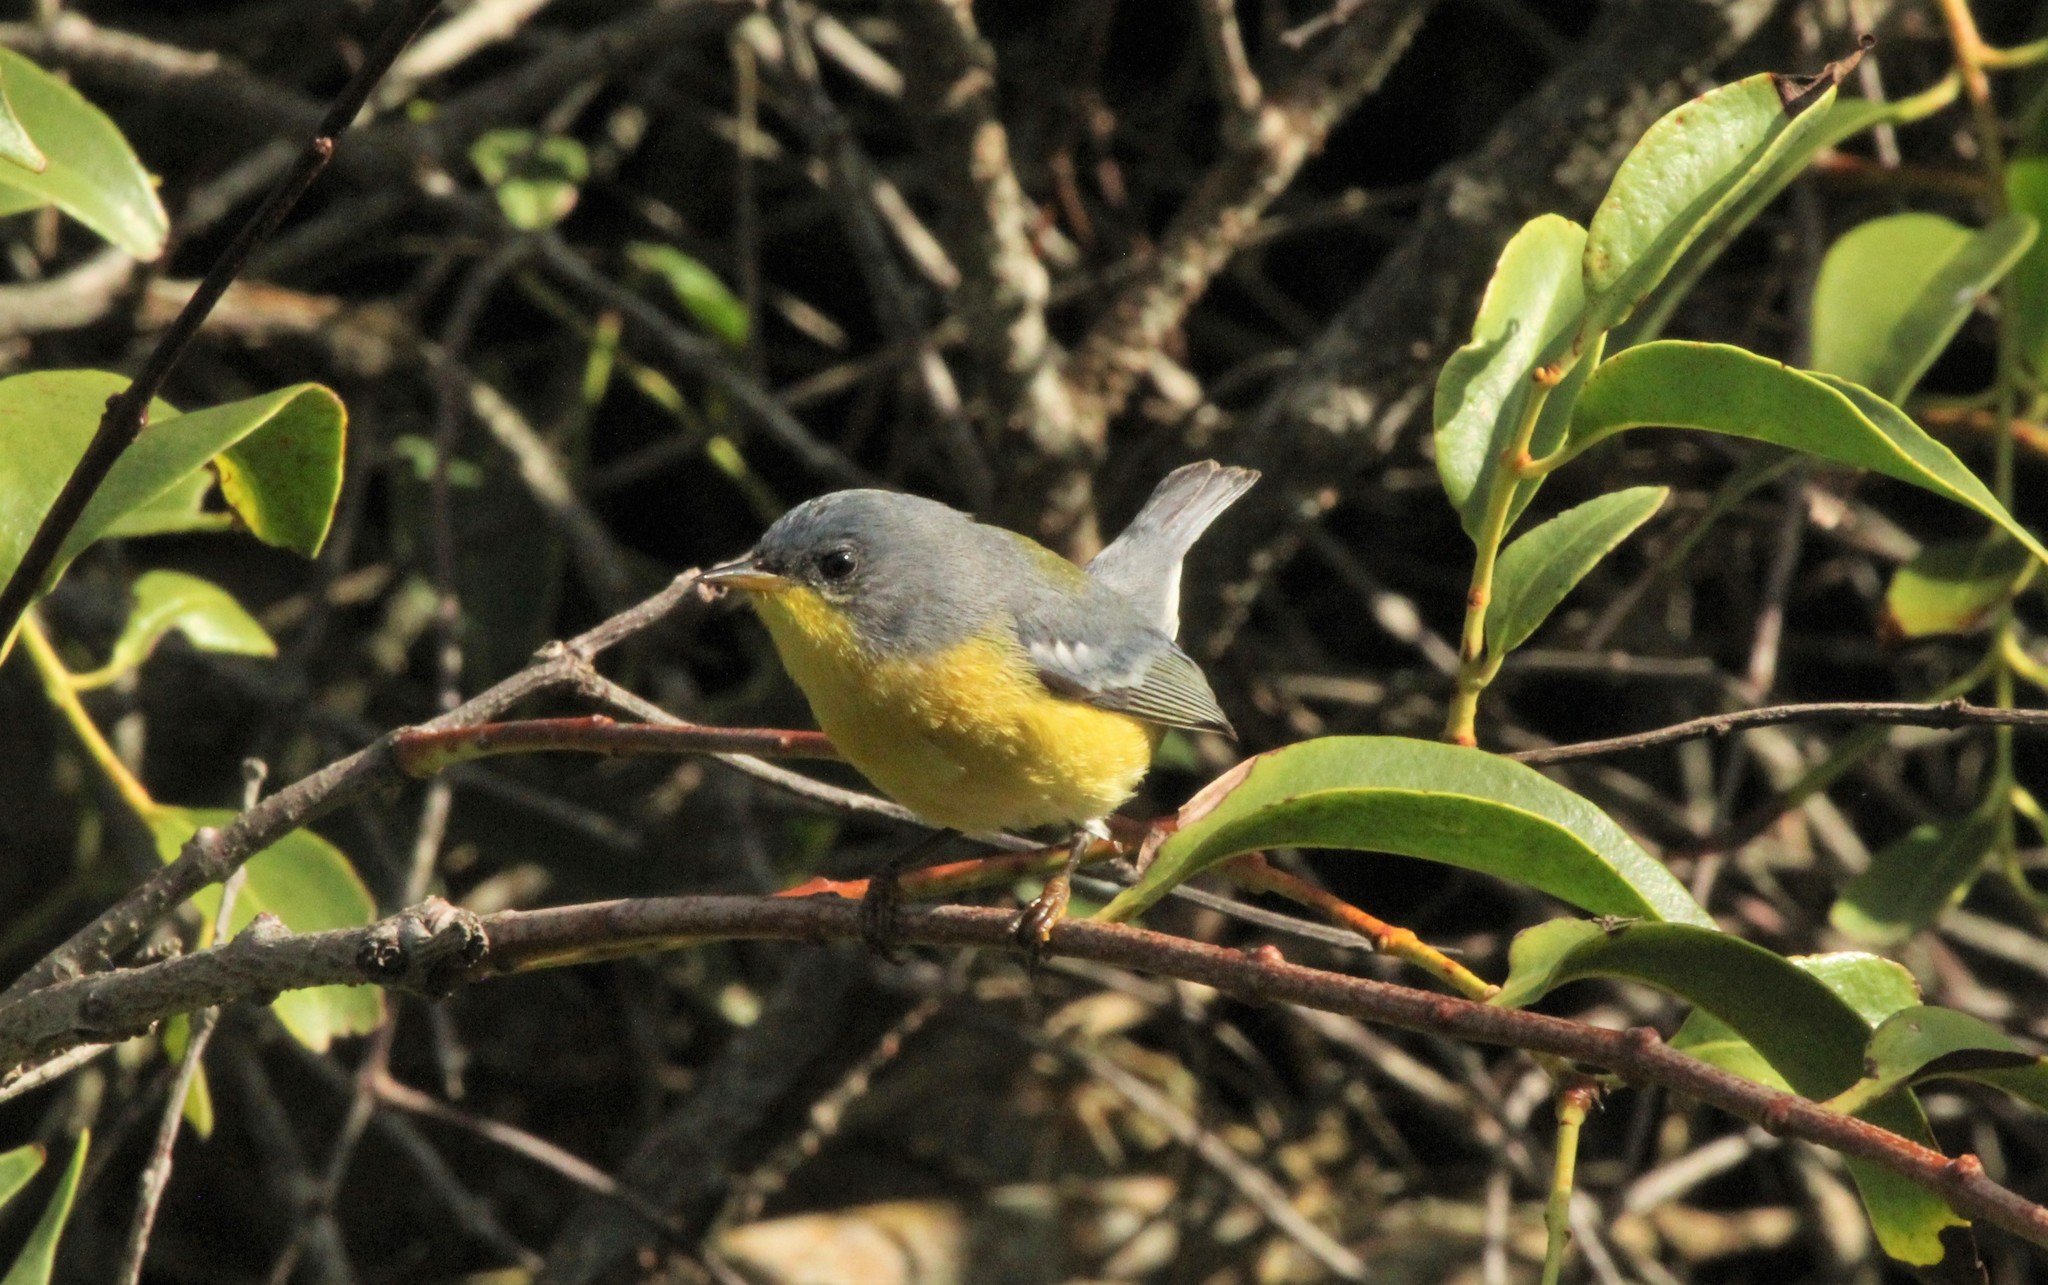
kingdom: Animalia
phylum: Chordata
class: Aves
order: Passeriformes
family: Parulidae
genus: Setophaga
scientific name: Setophaga pitiayumi
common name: Tropical parula
